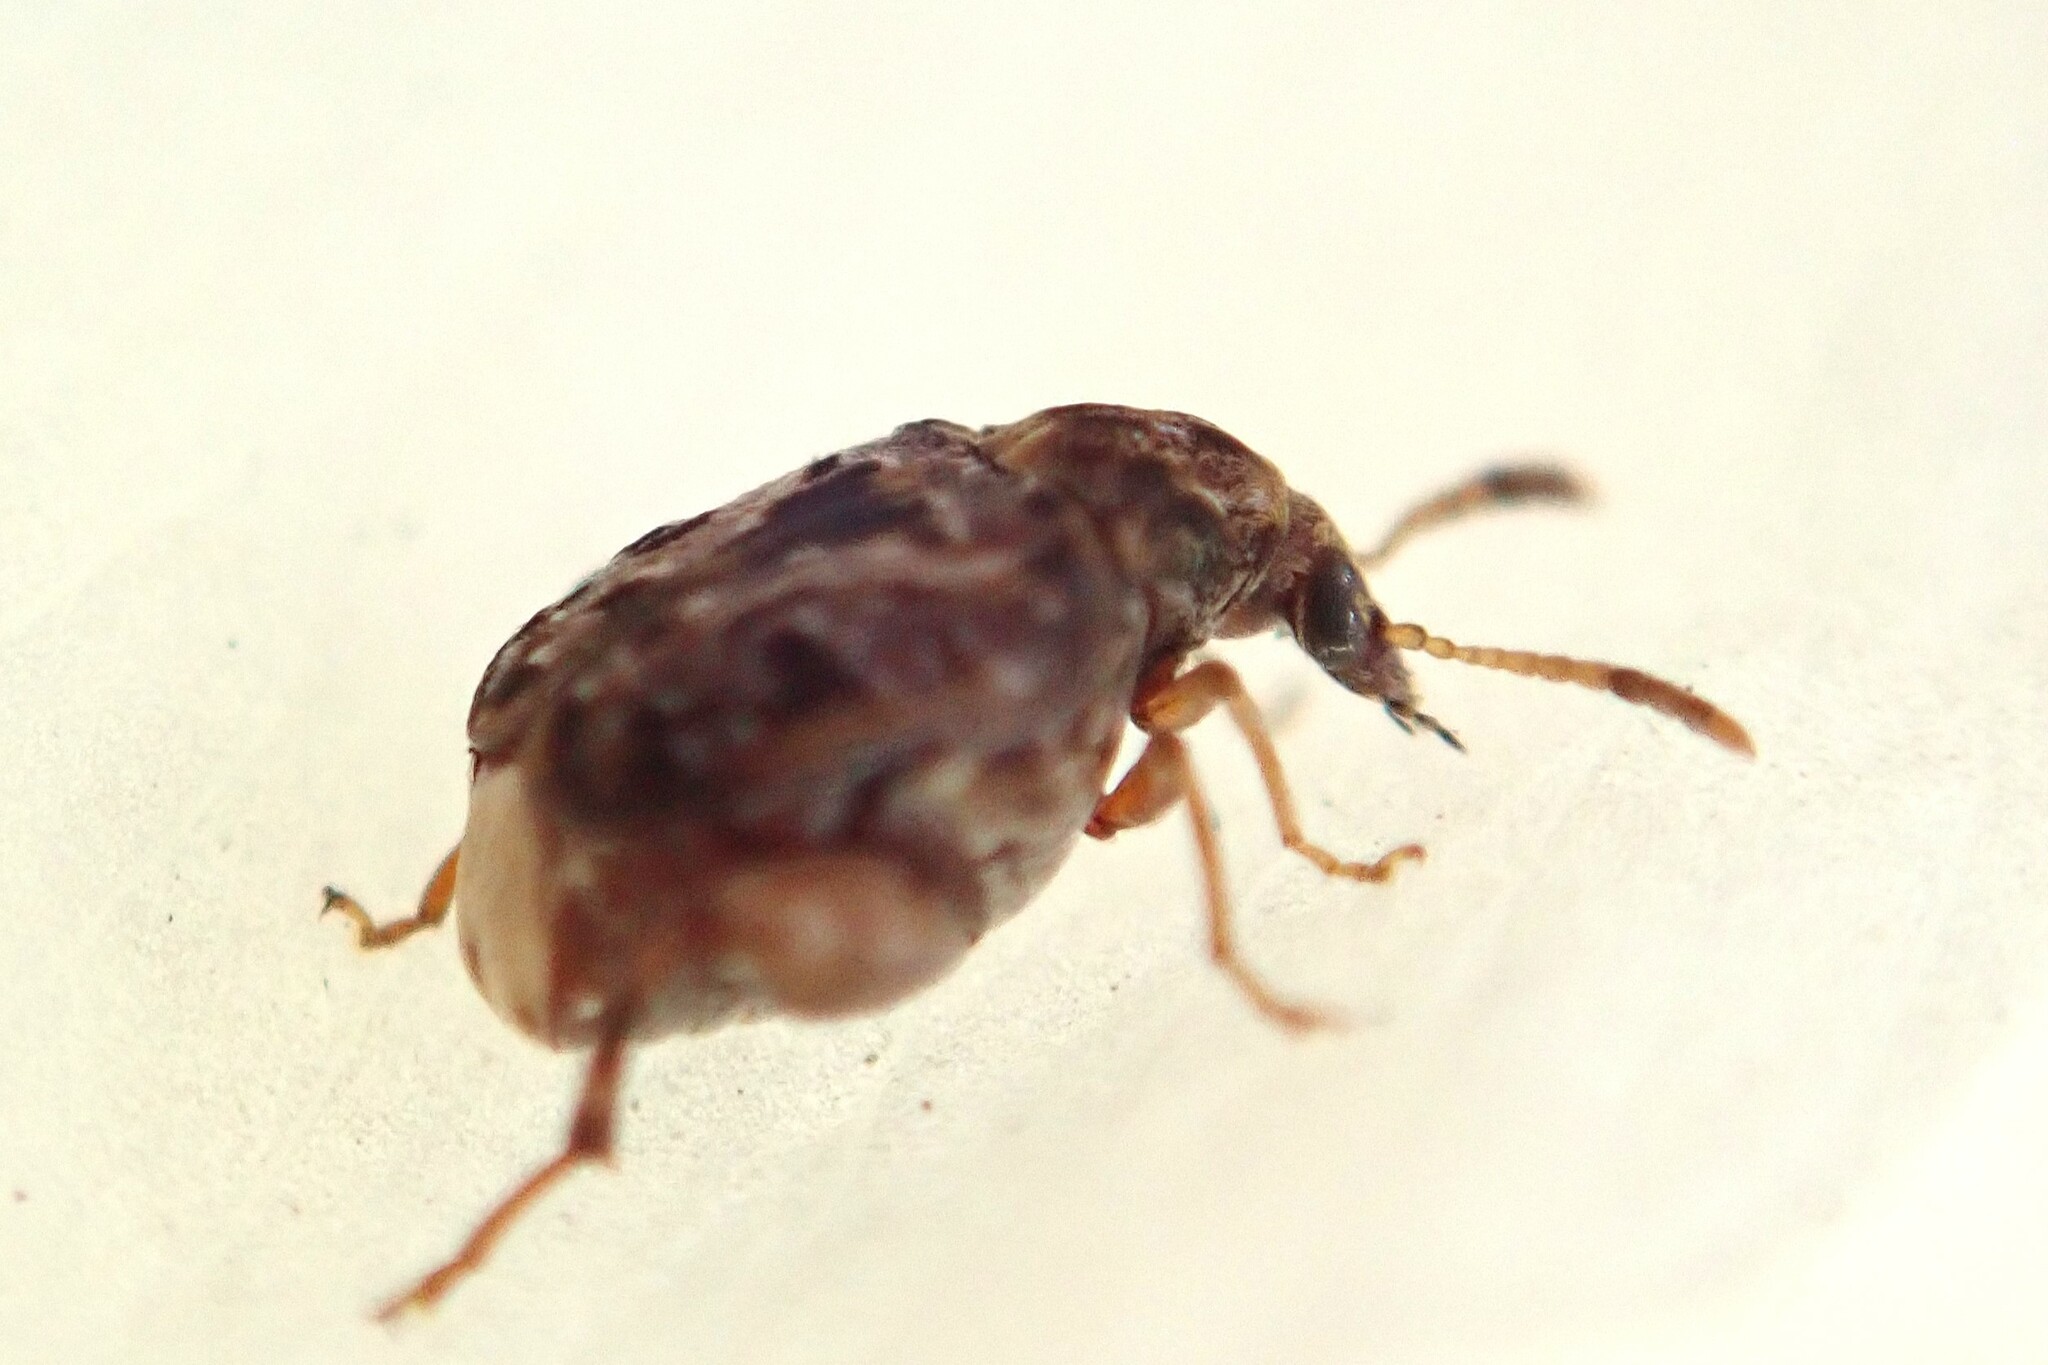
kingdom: Animalia
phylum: Arthropoda
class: Insecta
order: Coleoptera
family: Chrysomelidae
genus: Gibbobruchus
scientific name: Gibbobruchus mimus
